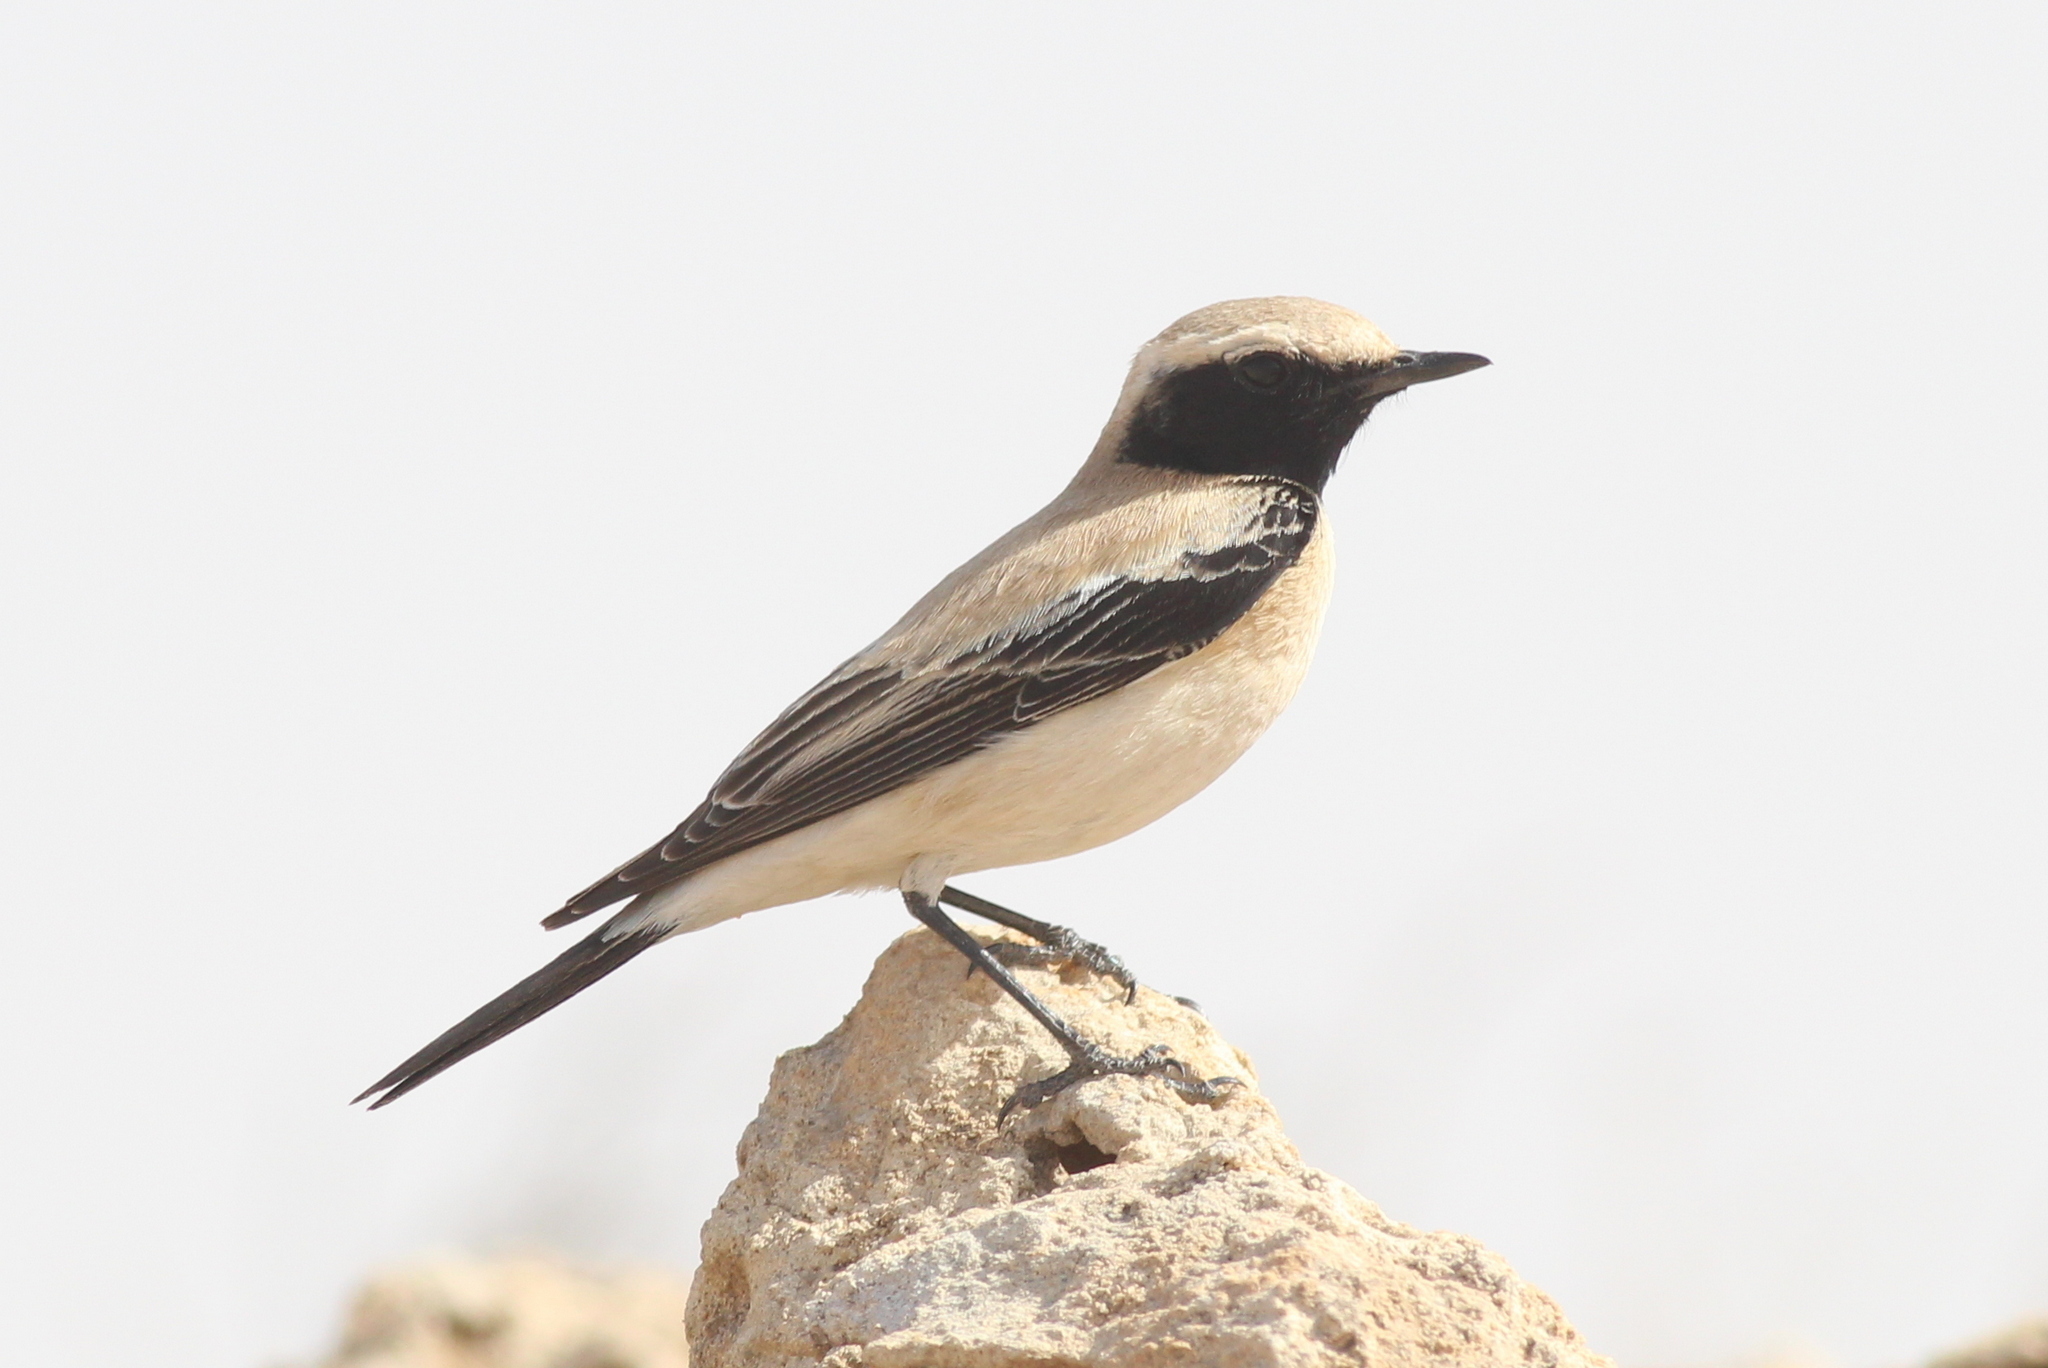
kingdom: Animalia
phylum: Chordata
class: Aves
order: Passeriformes
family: Muscicapidae
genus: Oenanthe
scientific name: Oenanthe deserti
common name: Desert wheatear
